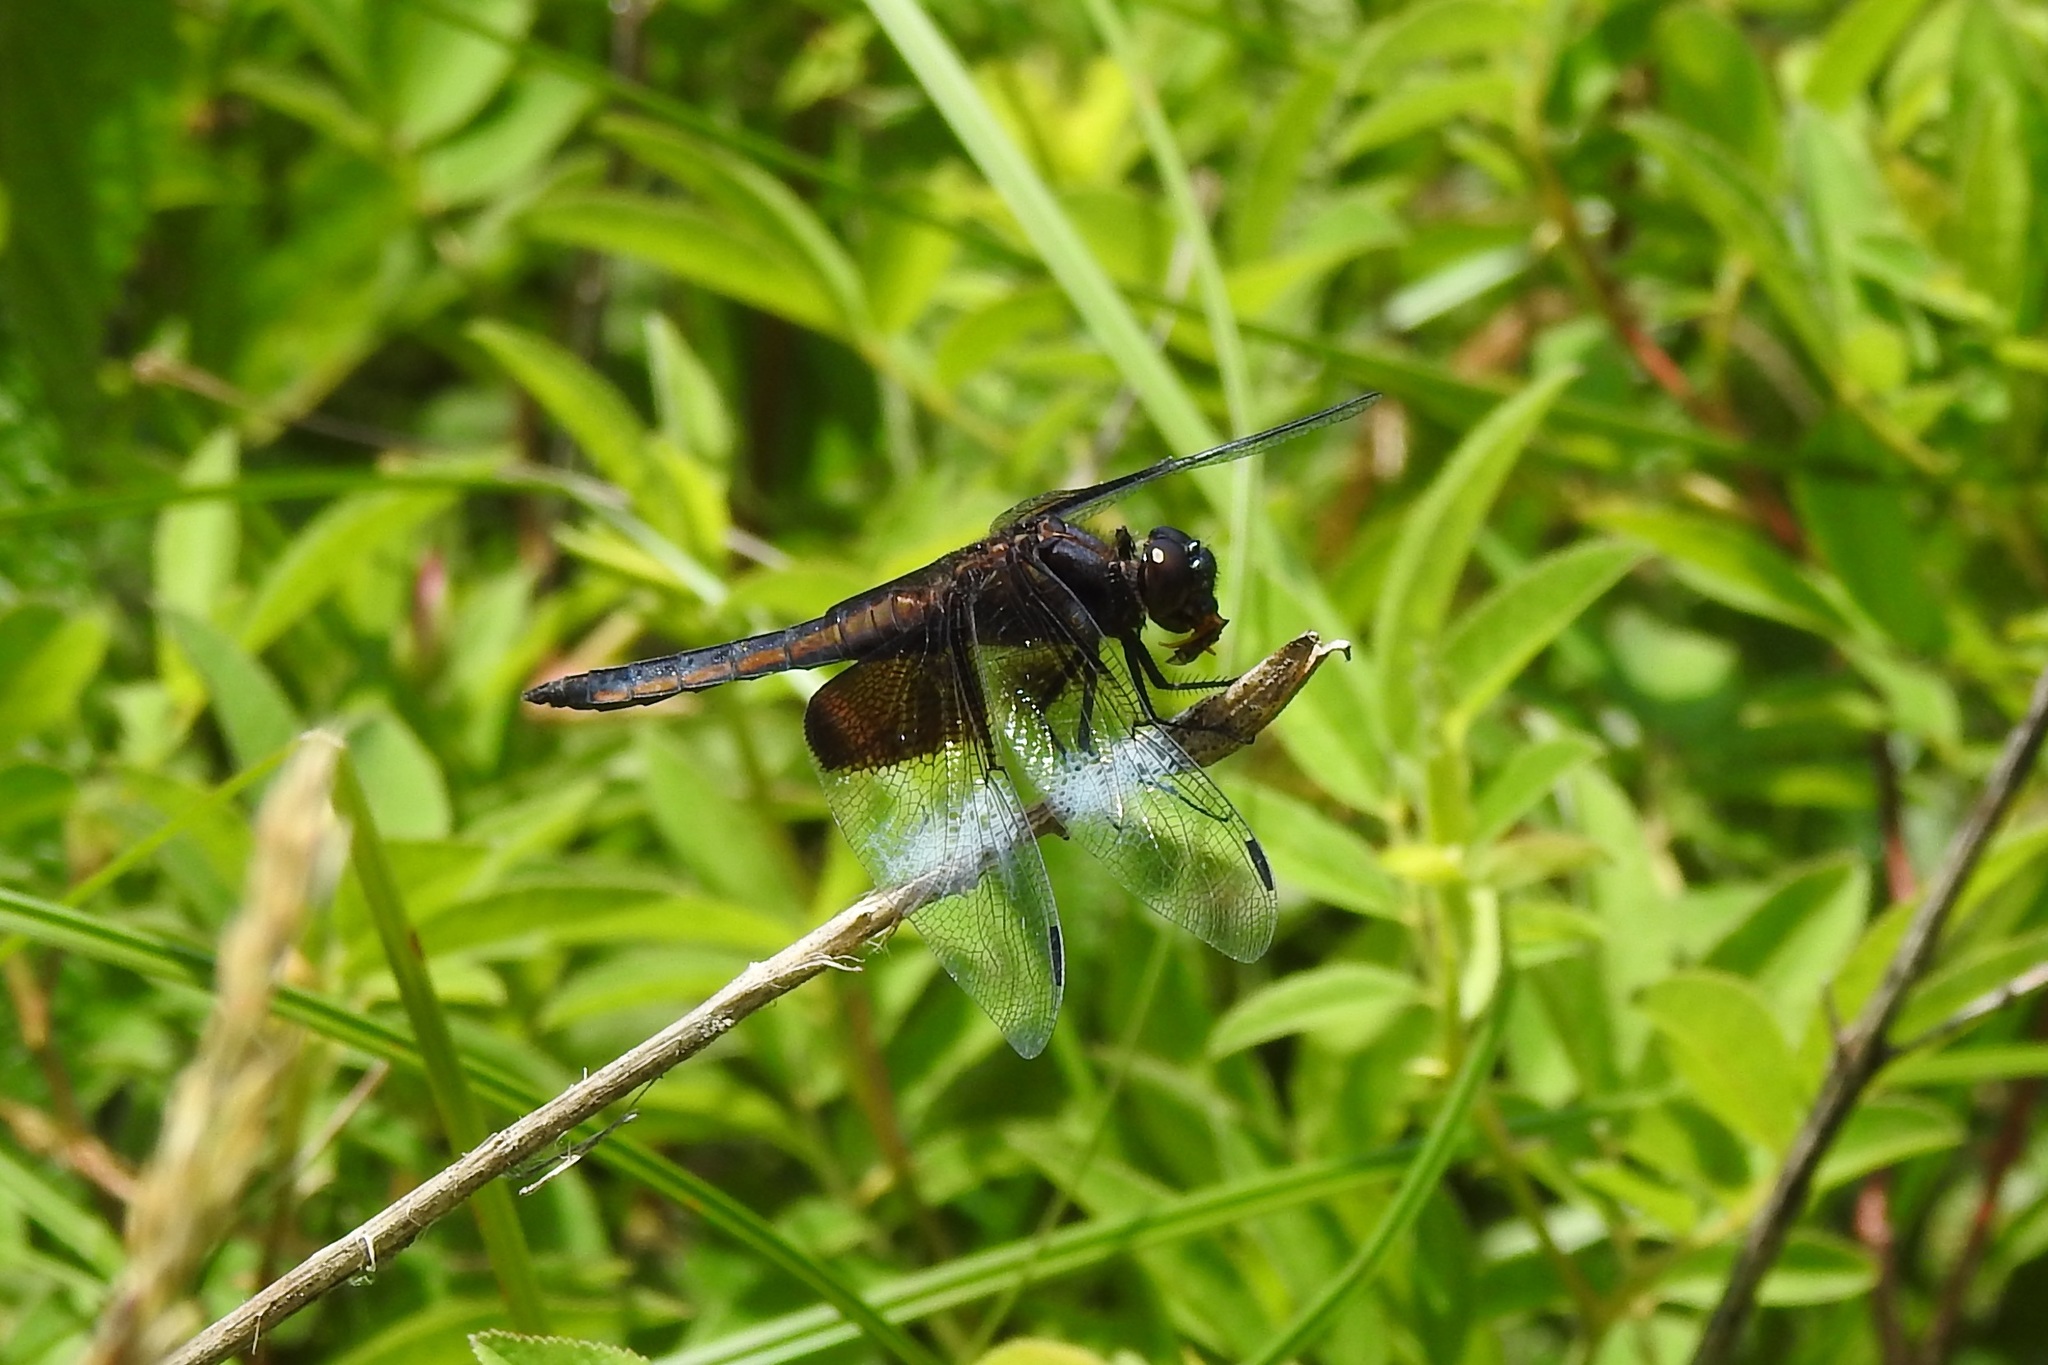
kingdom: Animalia
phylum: Arthropoda
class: Insecta
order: Odonata
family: Libellulidae
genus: Libellula
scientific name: Libellula luctuosa
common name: Widow skimmer
